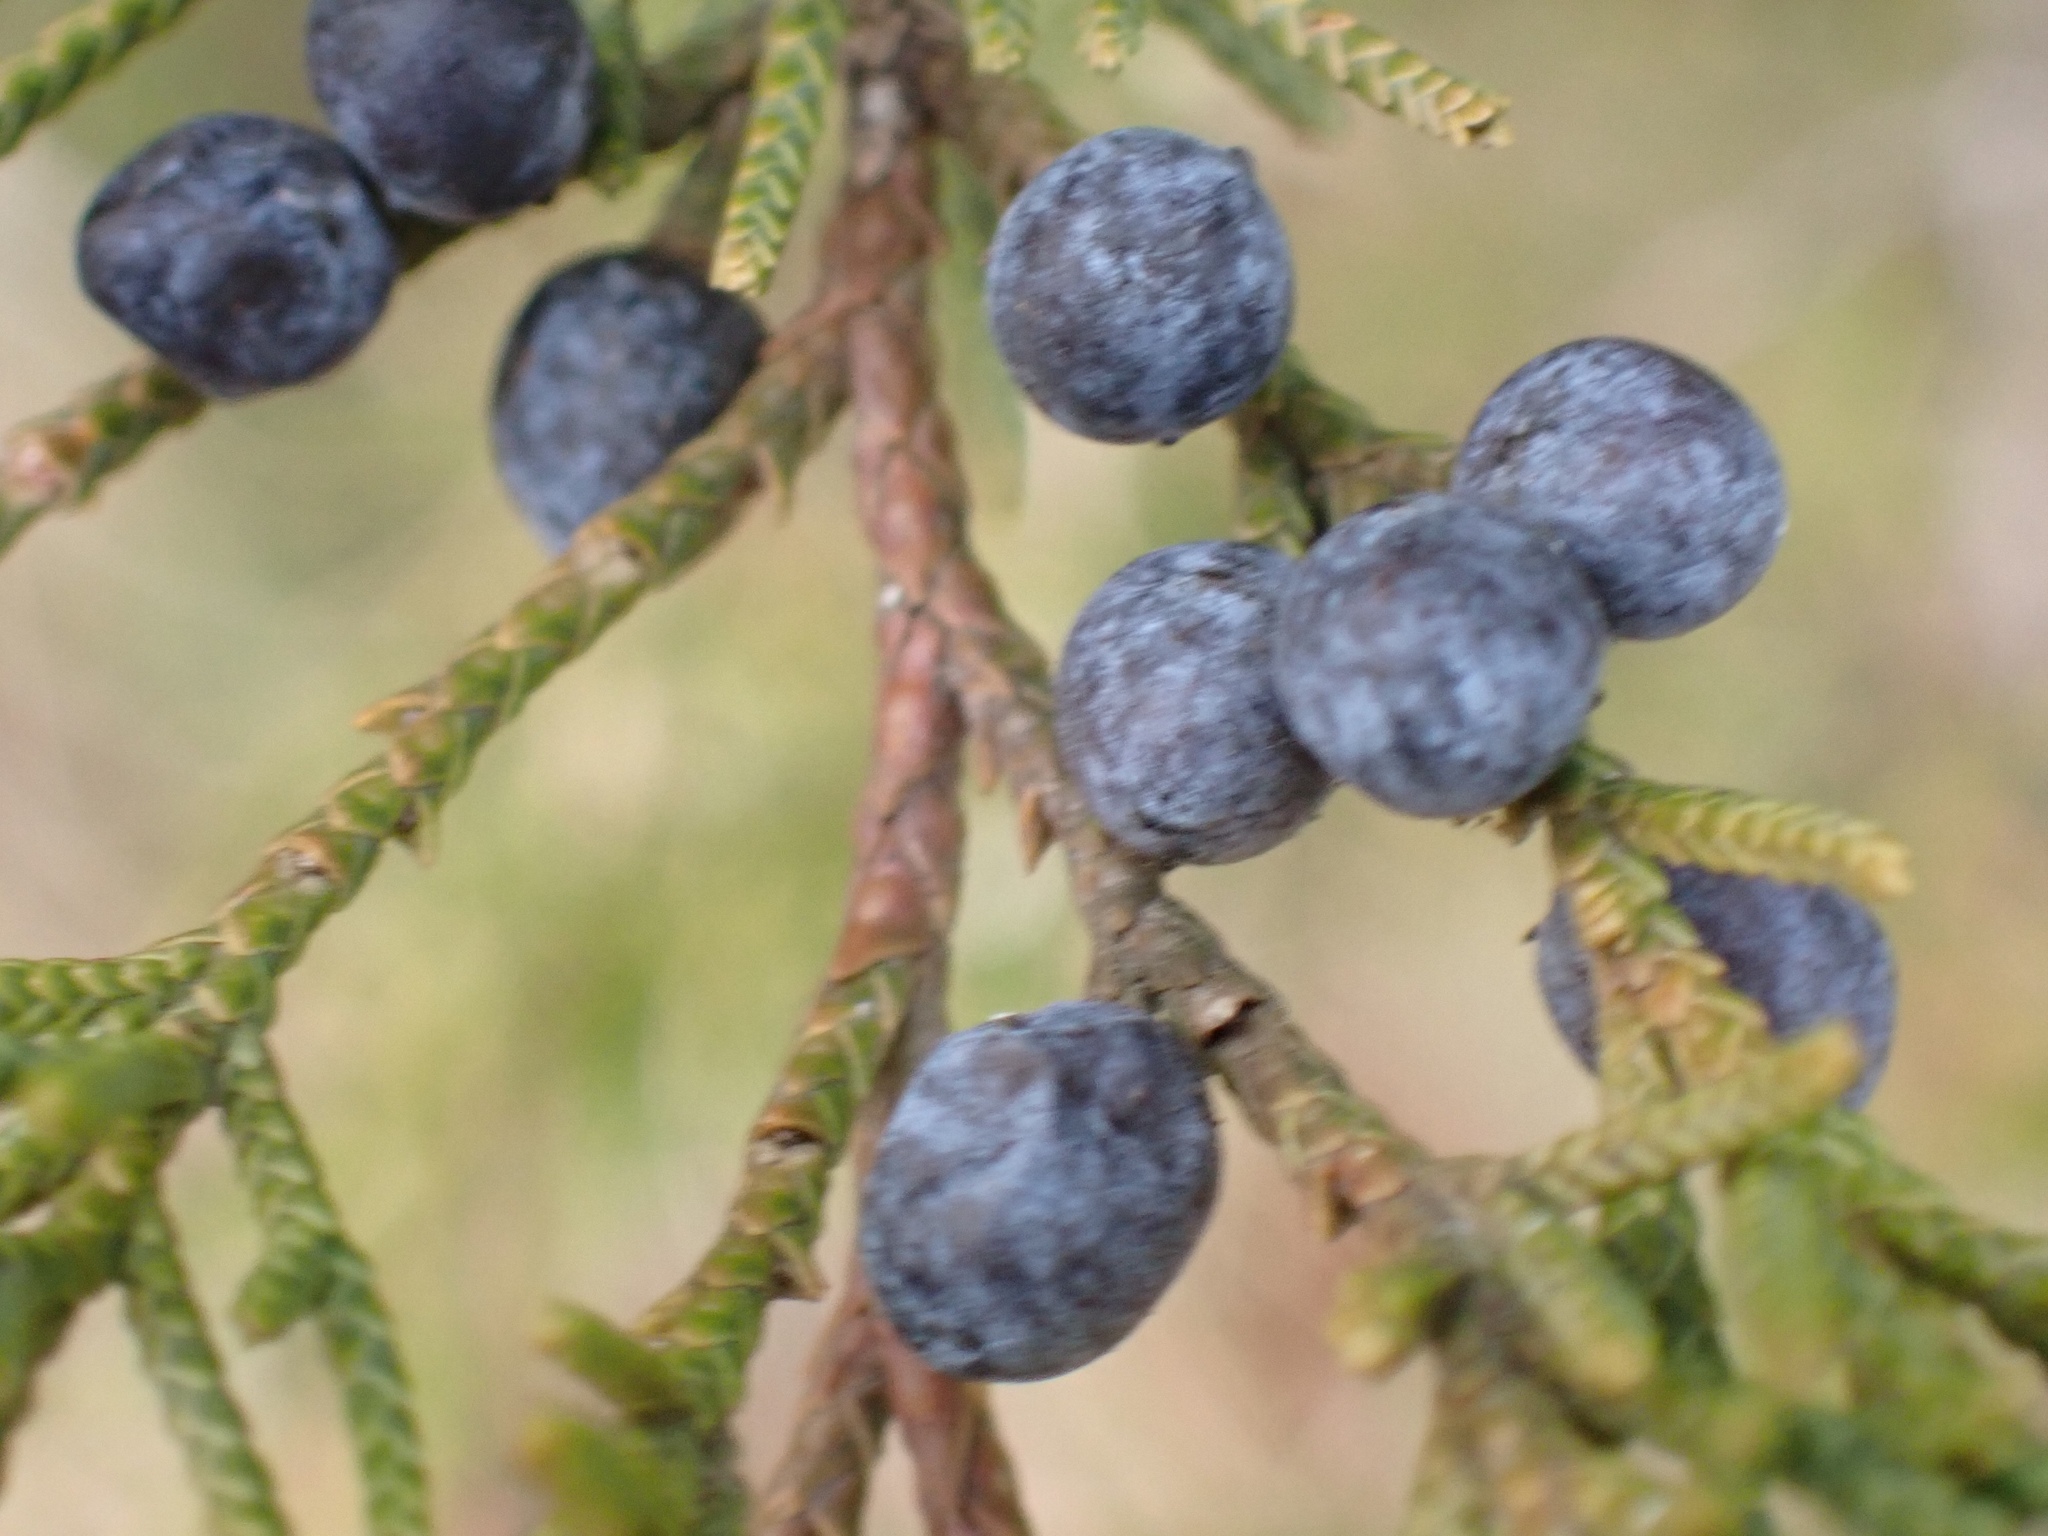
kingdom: Plantae
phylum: Tracheophyta
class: Pinopsida
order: Pinales
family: Cupressaceae
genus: Juniperus
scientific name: Juniperus virginiana
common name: Red juniper
